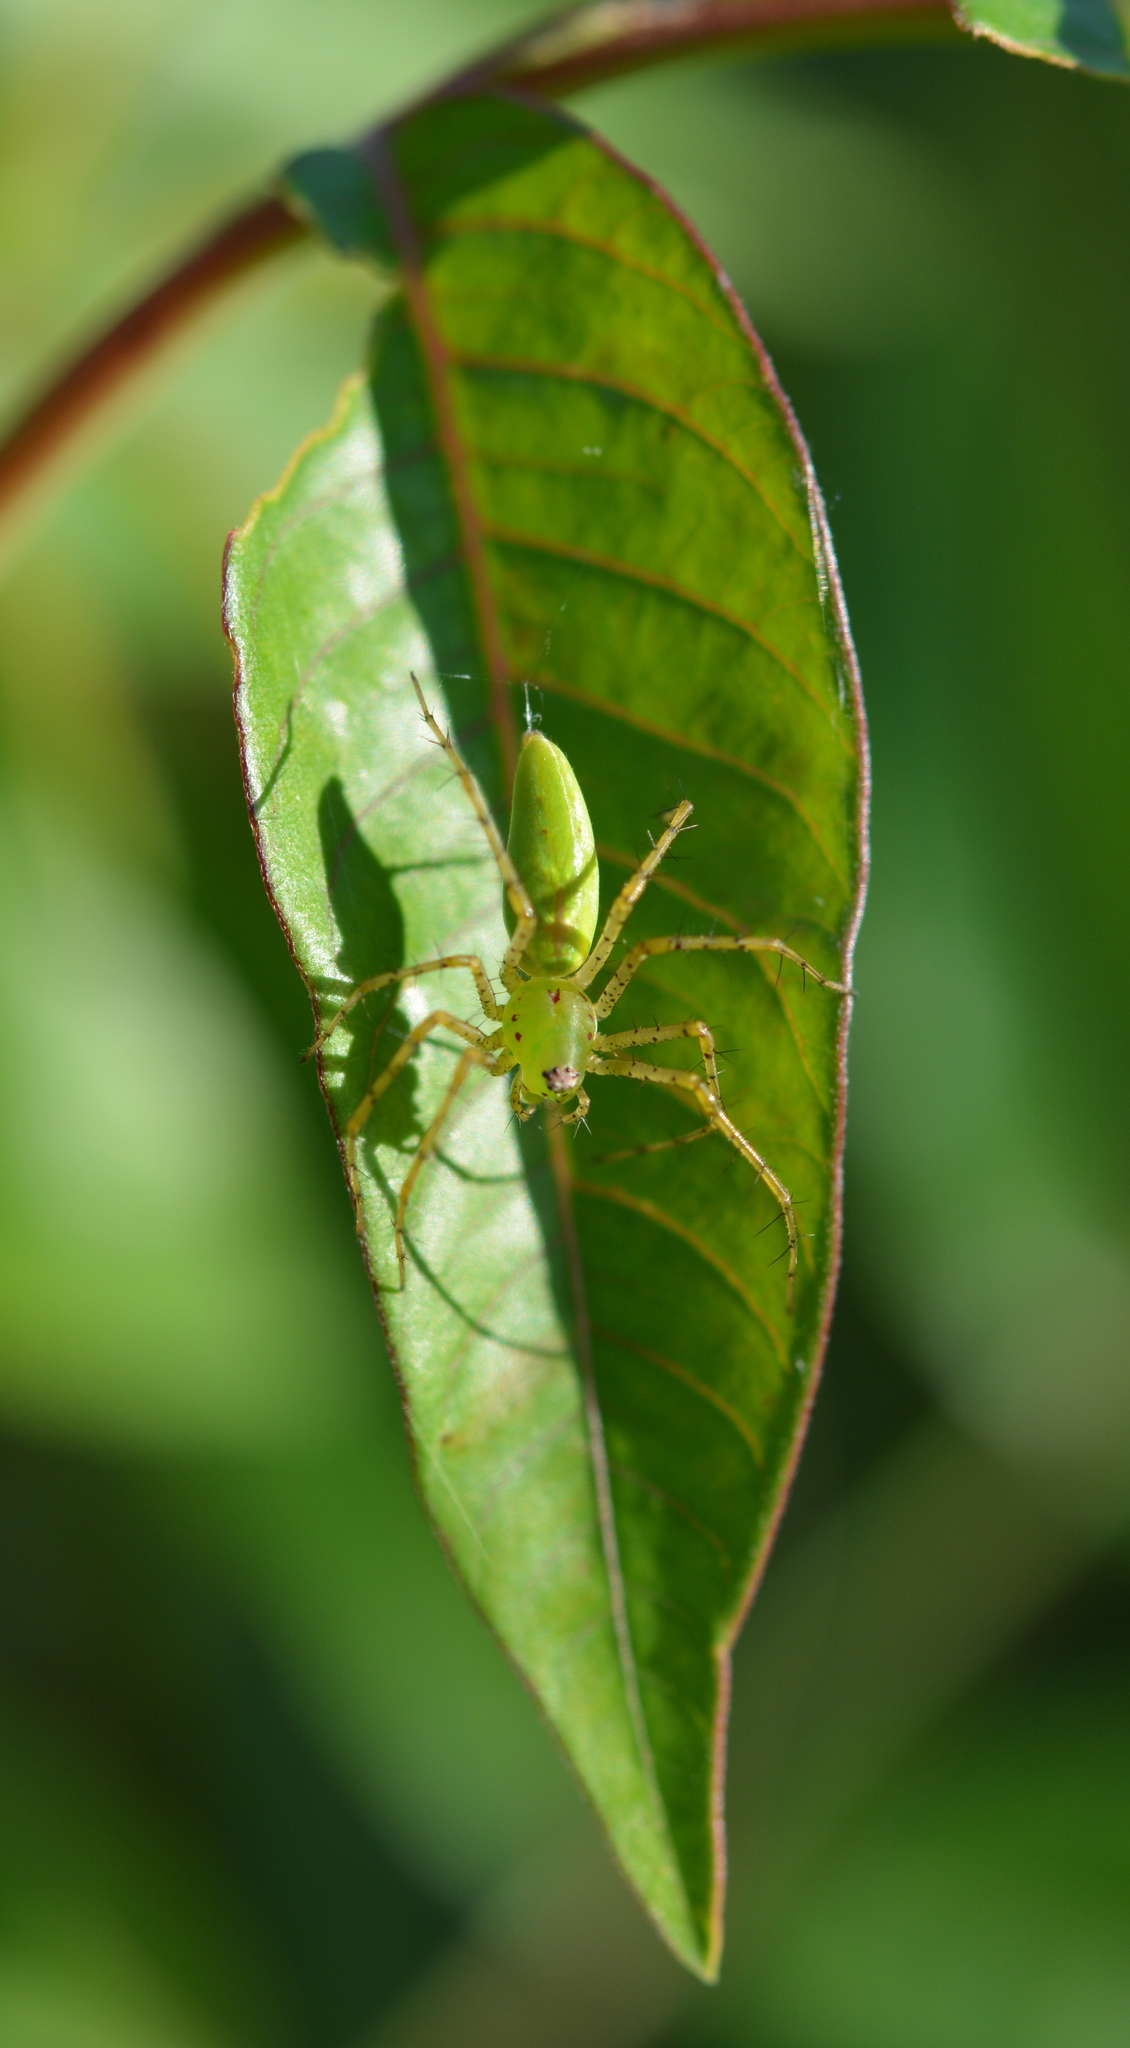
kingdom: Animalia
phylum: Arthropoda
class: Arachnida
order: Araneae
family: Oxyopidae
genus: Peucetia
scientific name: Peucetia viridans
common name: Lynx spiders
